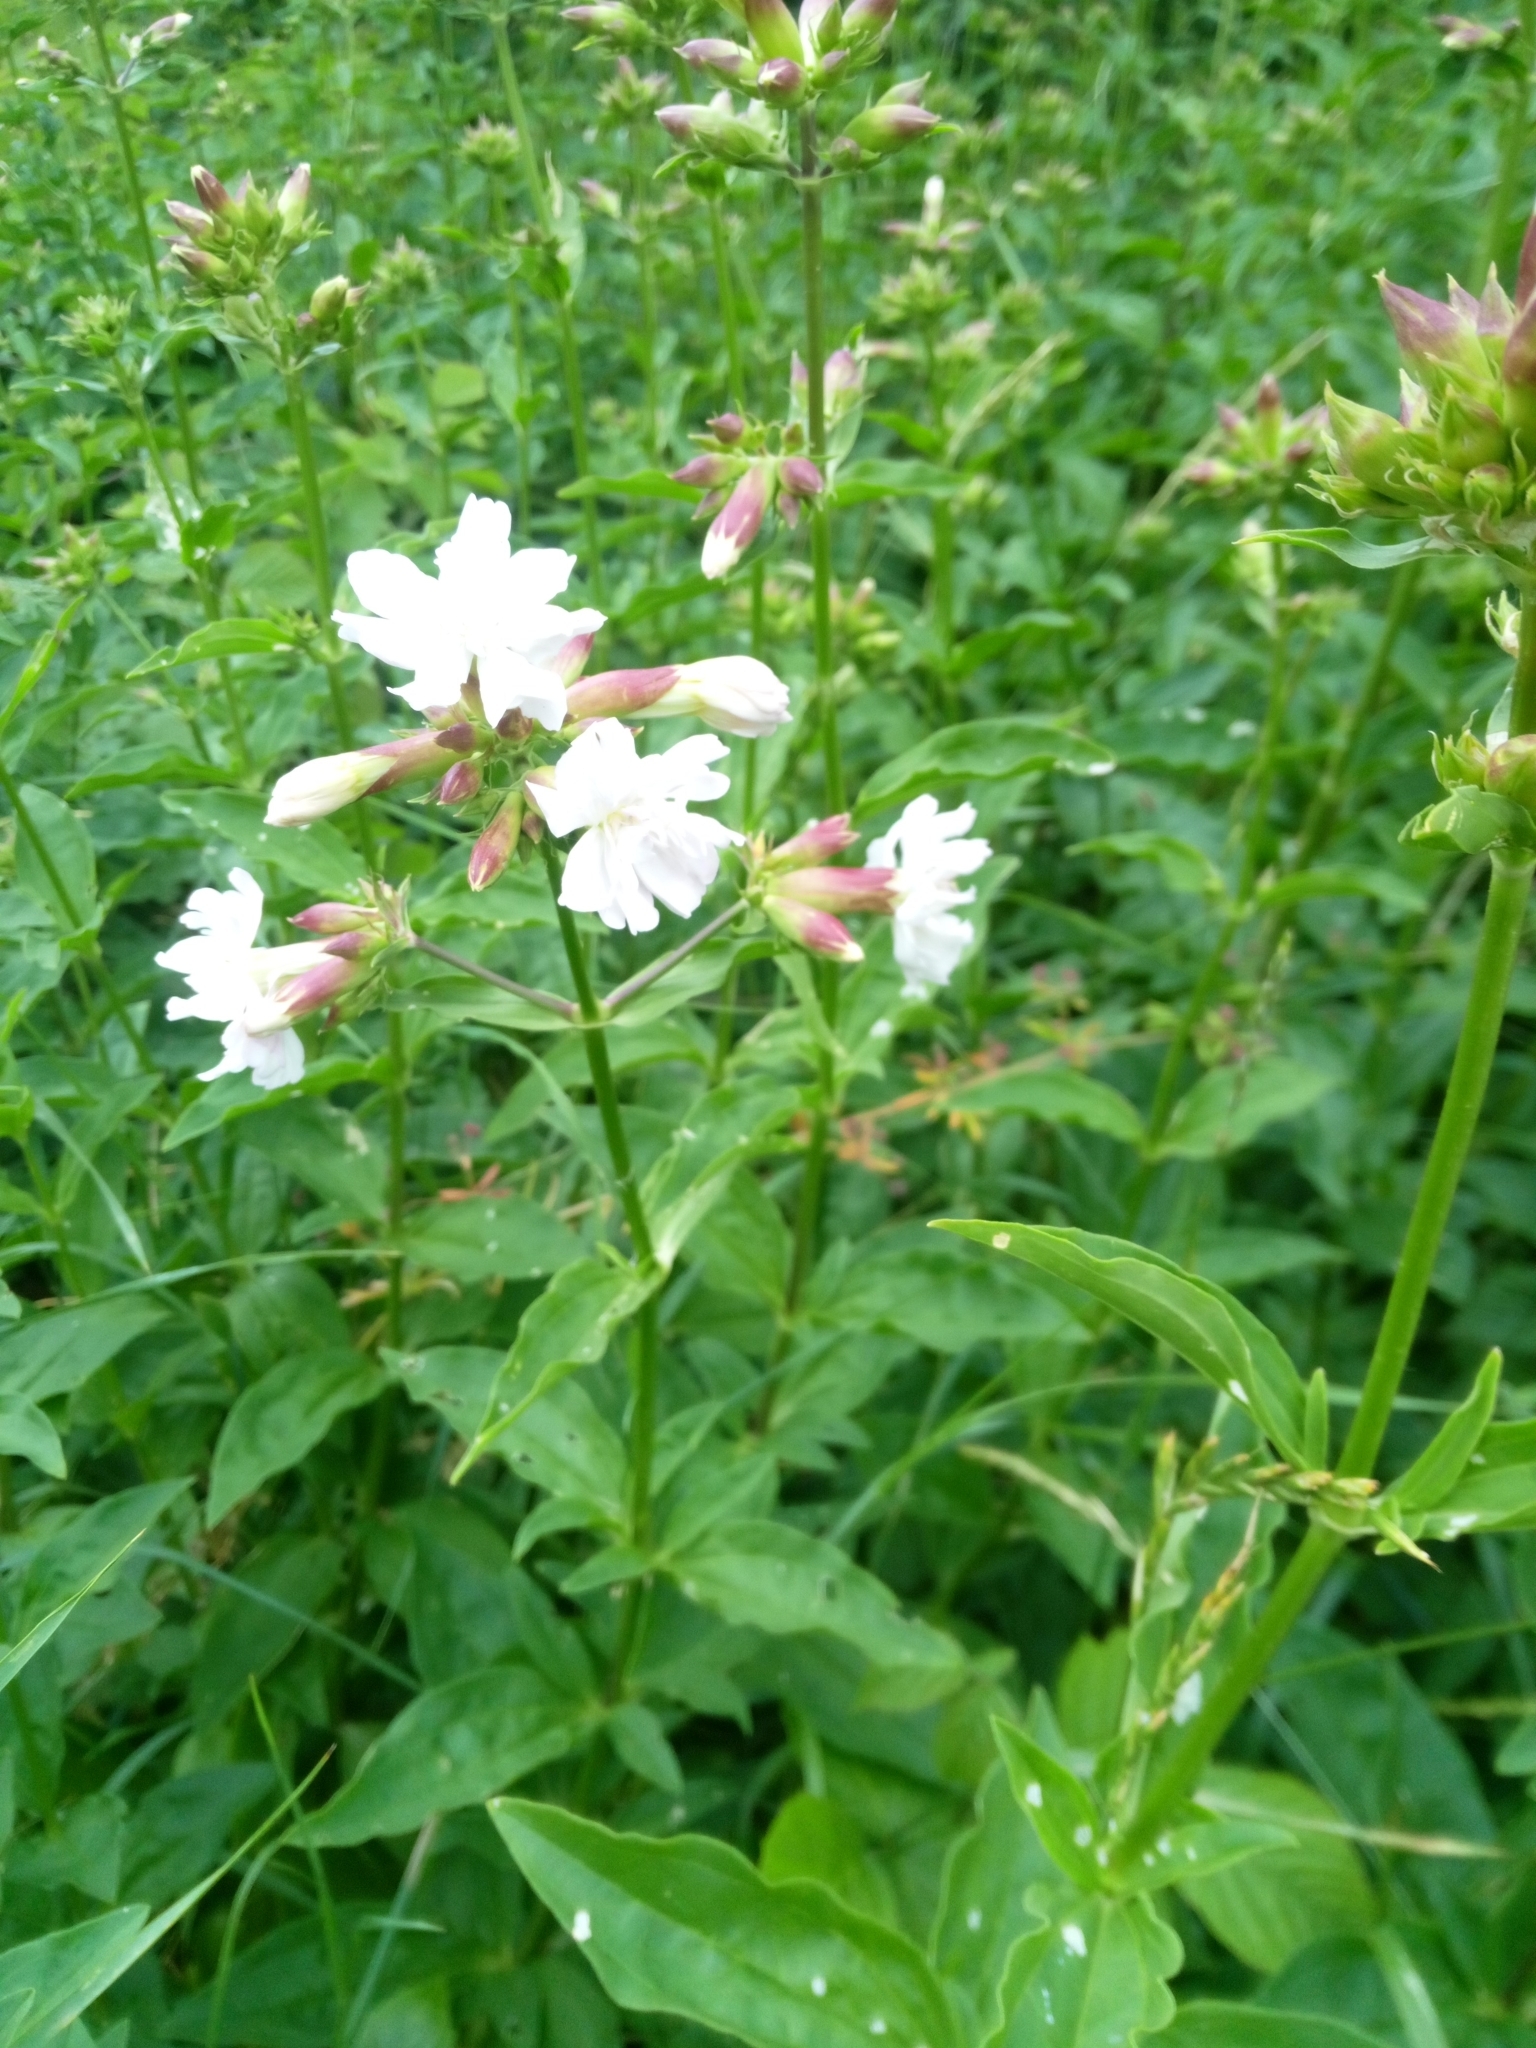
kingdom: Plantae
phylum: Tracheophyta
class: Magnoliopsida
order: Caryophyllales
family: Caryophyllaceae
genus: Saponaria
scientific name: Saponaria officinalis
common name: Soapwort
